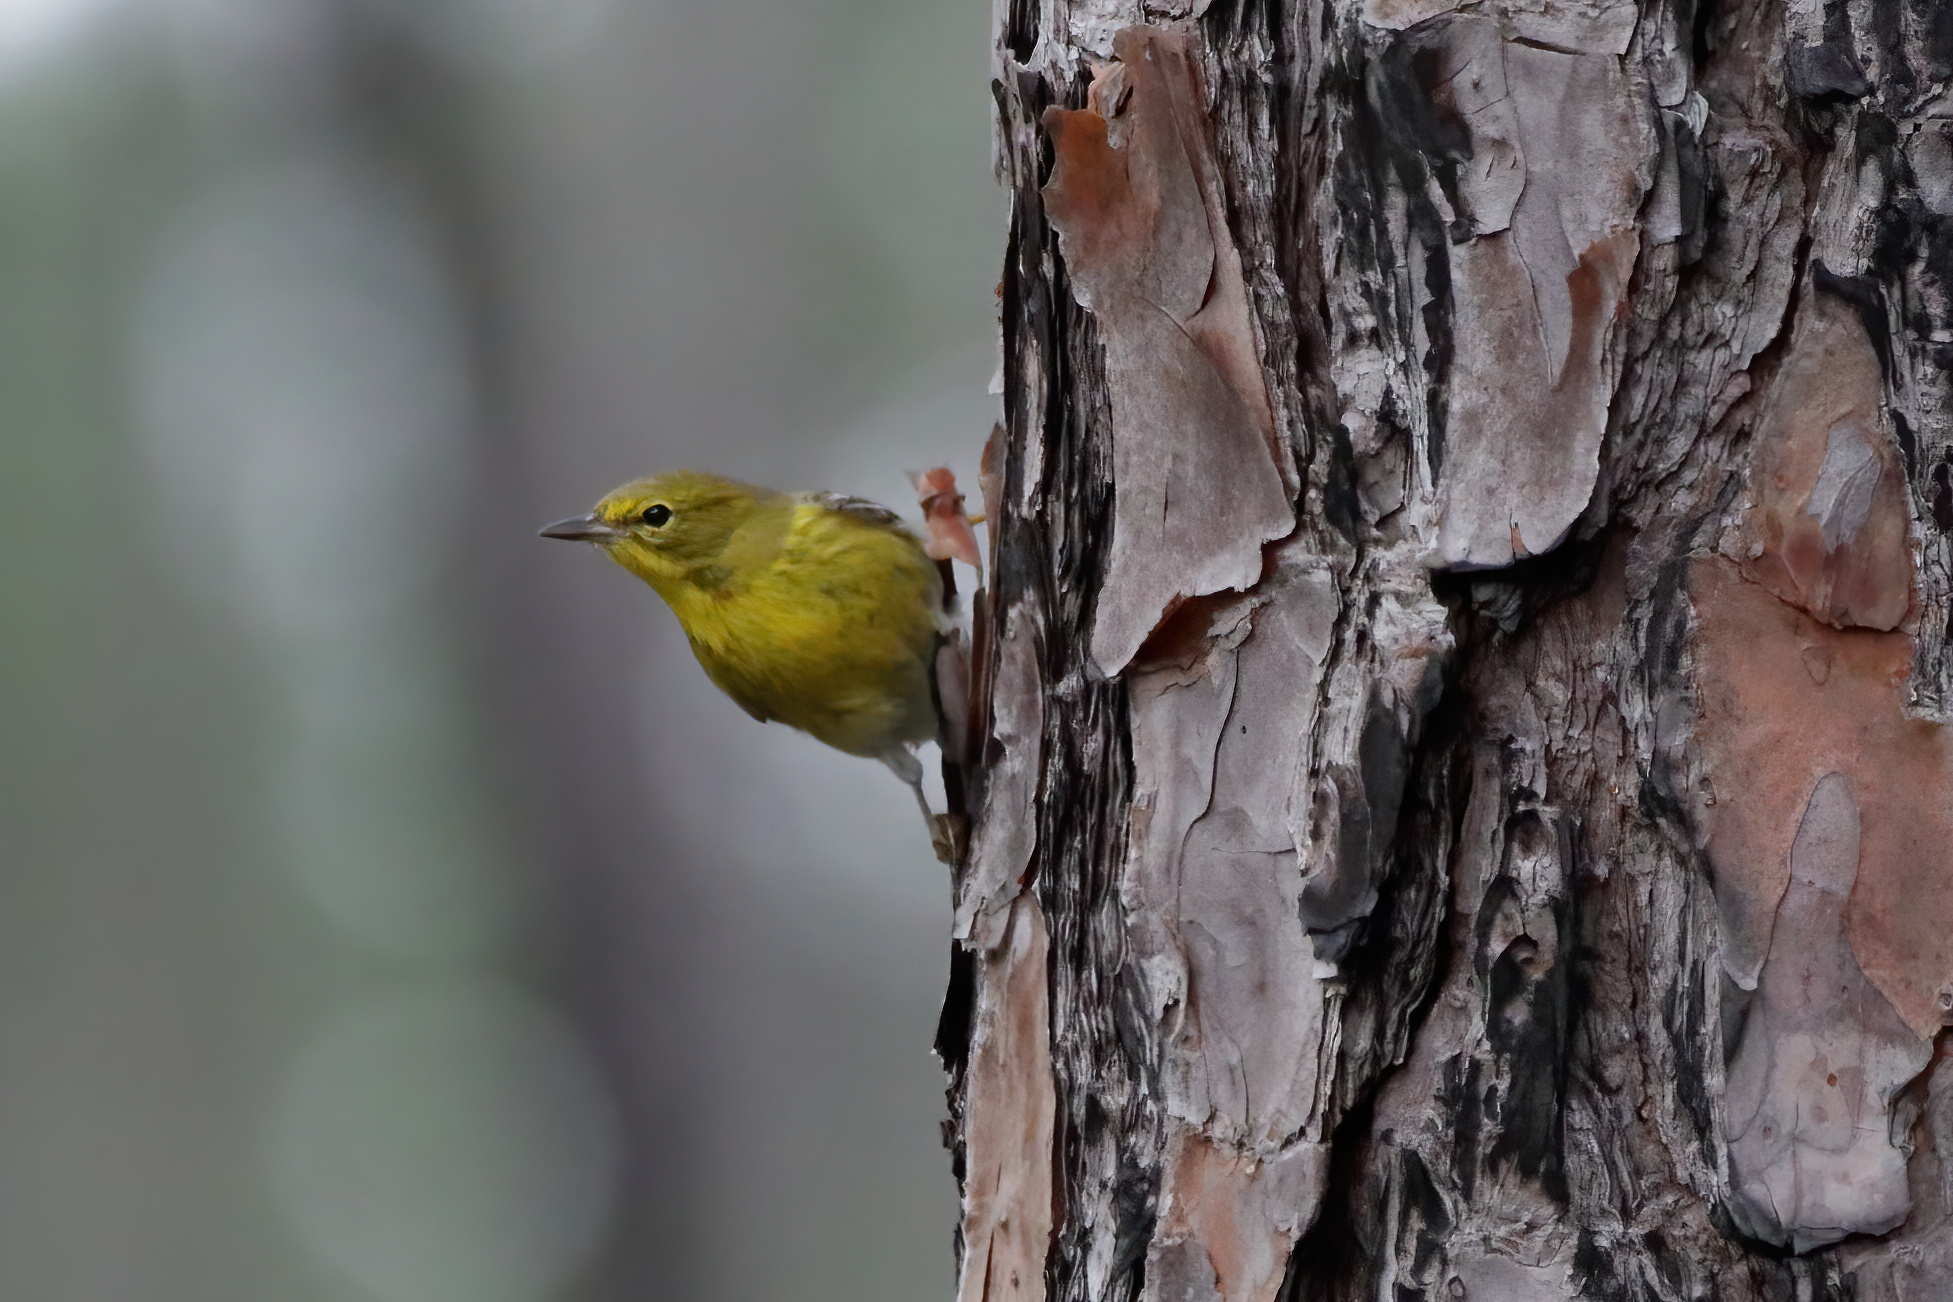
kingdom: Animalia
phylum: Chordata
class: Aves
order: Passeriformes
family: Parulidae
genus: Setophaga
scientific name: Setophaga pinus
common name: Pine warbler
